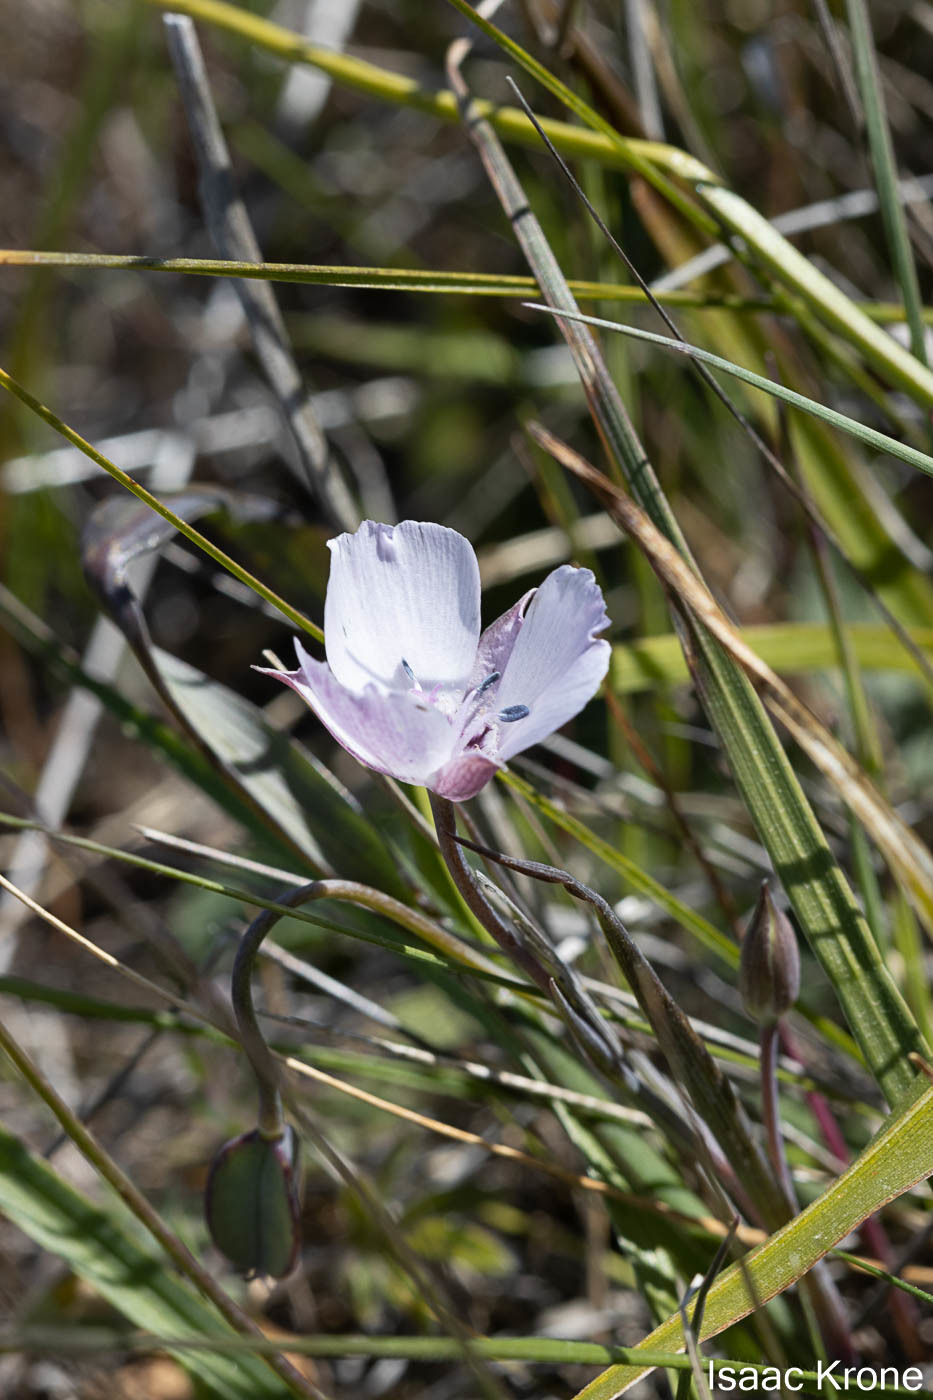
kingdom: Plantae
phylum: Tracheophyta
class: Liliopsida
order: Liliales
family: Liliaceae
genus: Calochortus
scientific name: Calochortus umbellatus
